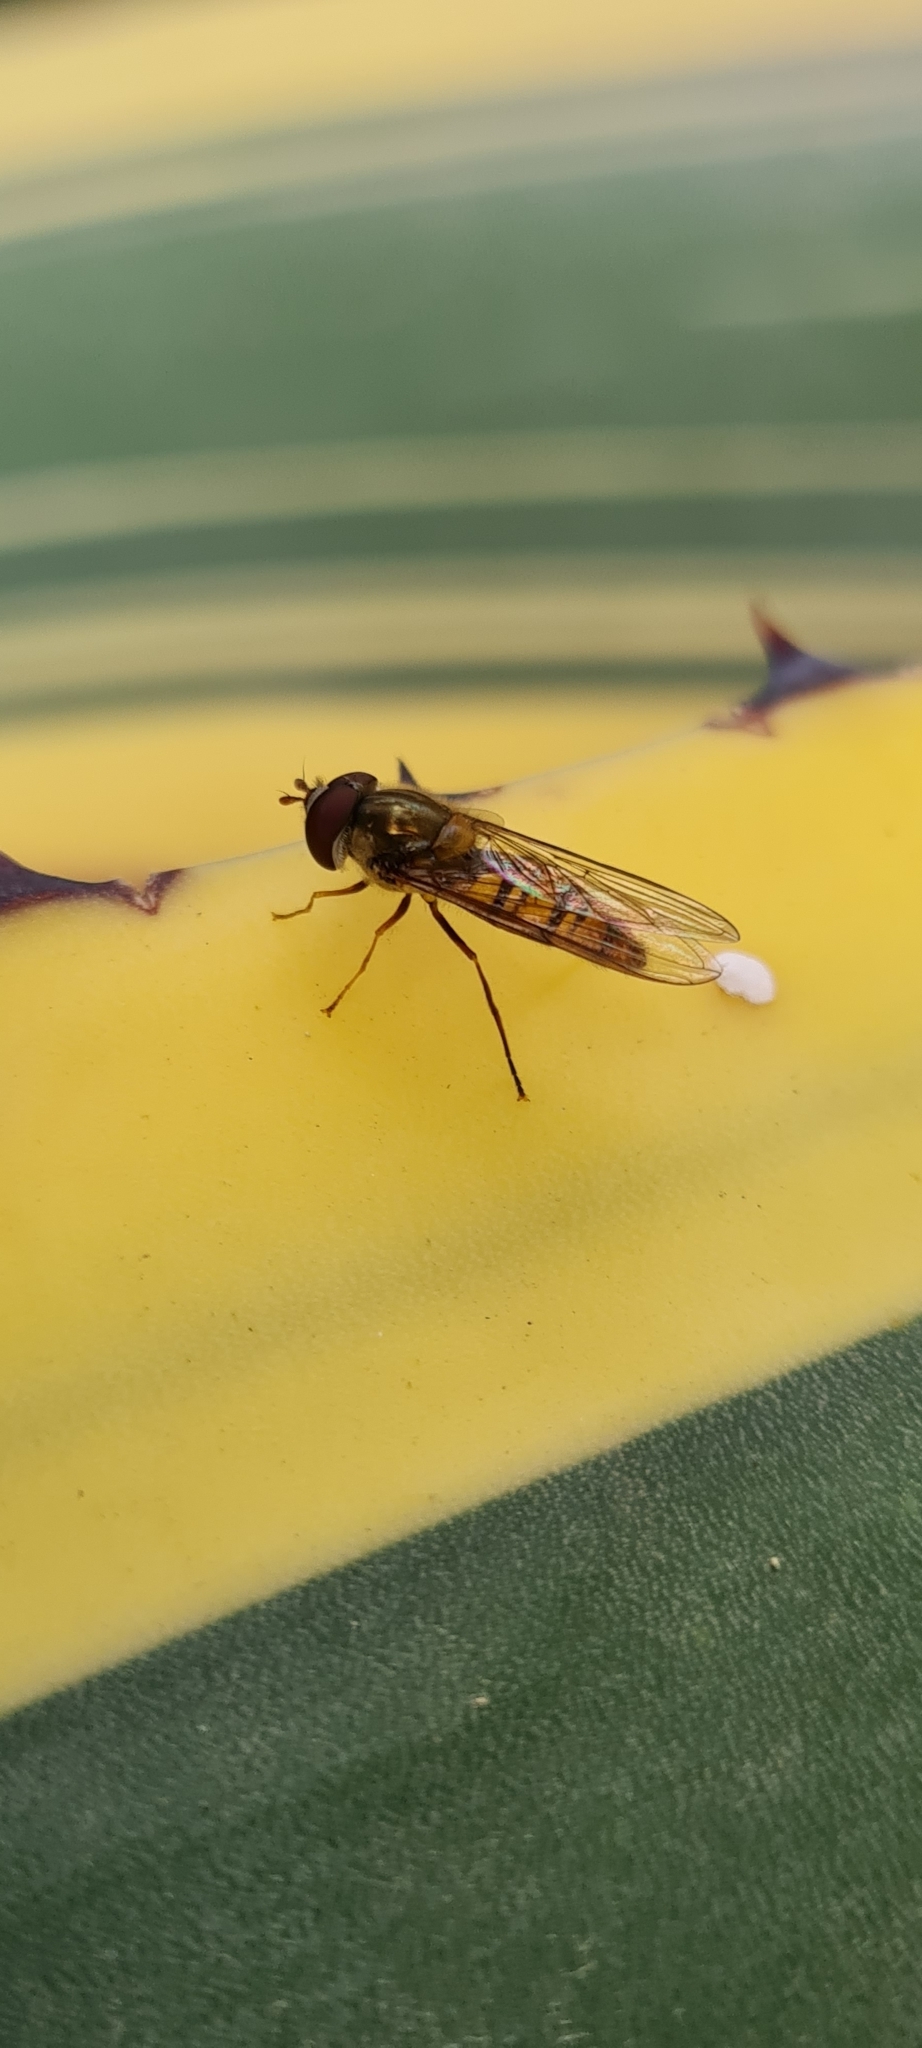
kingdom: Animalia
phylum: Arthropoda
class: Insecta
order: Diptera
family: Syrphidae
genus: Episyrphus
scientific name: Episyrphus balteatus
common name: Marmalade hoverfly
